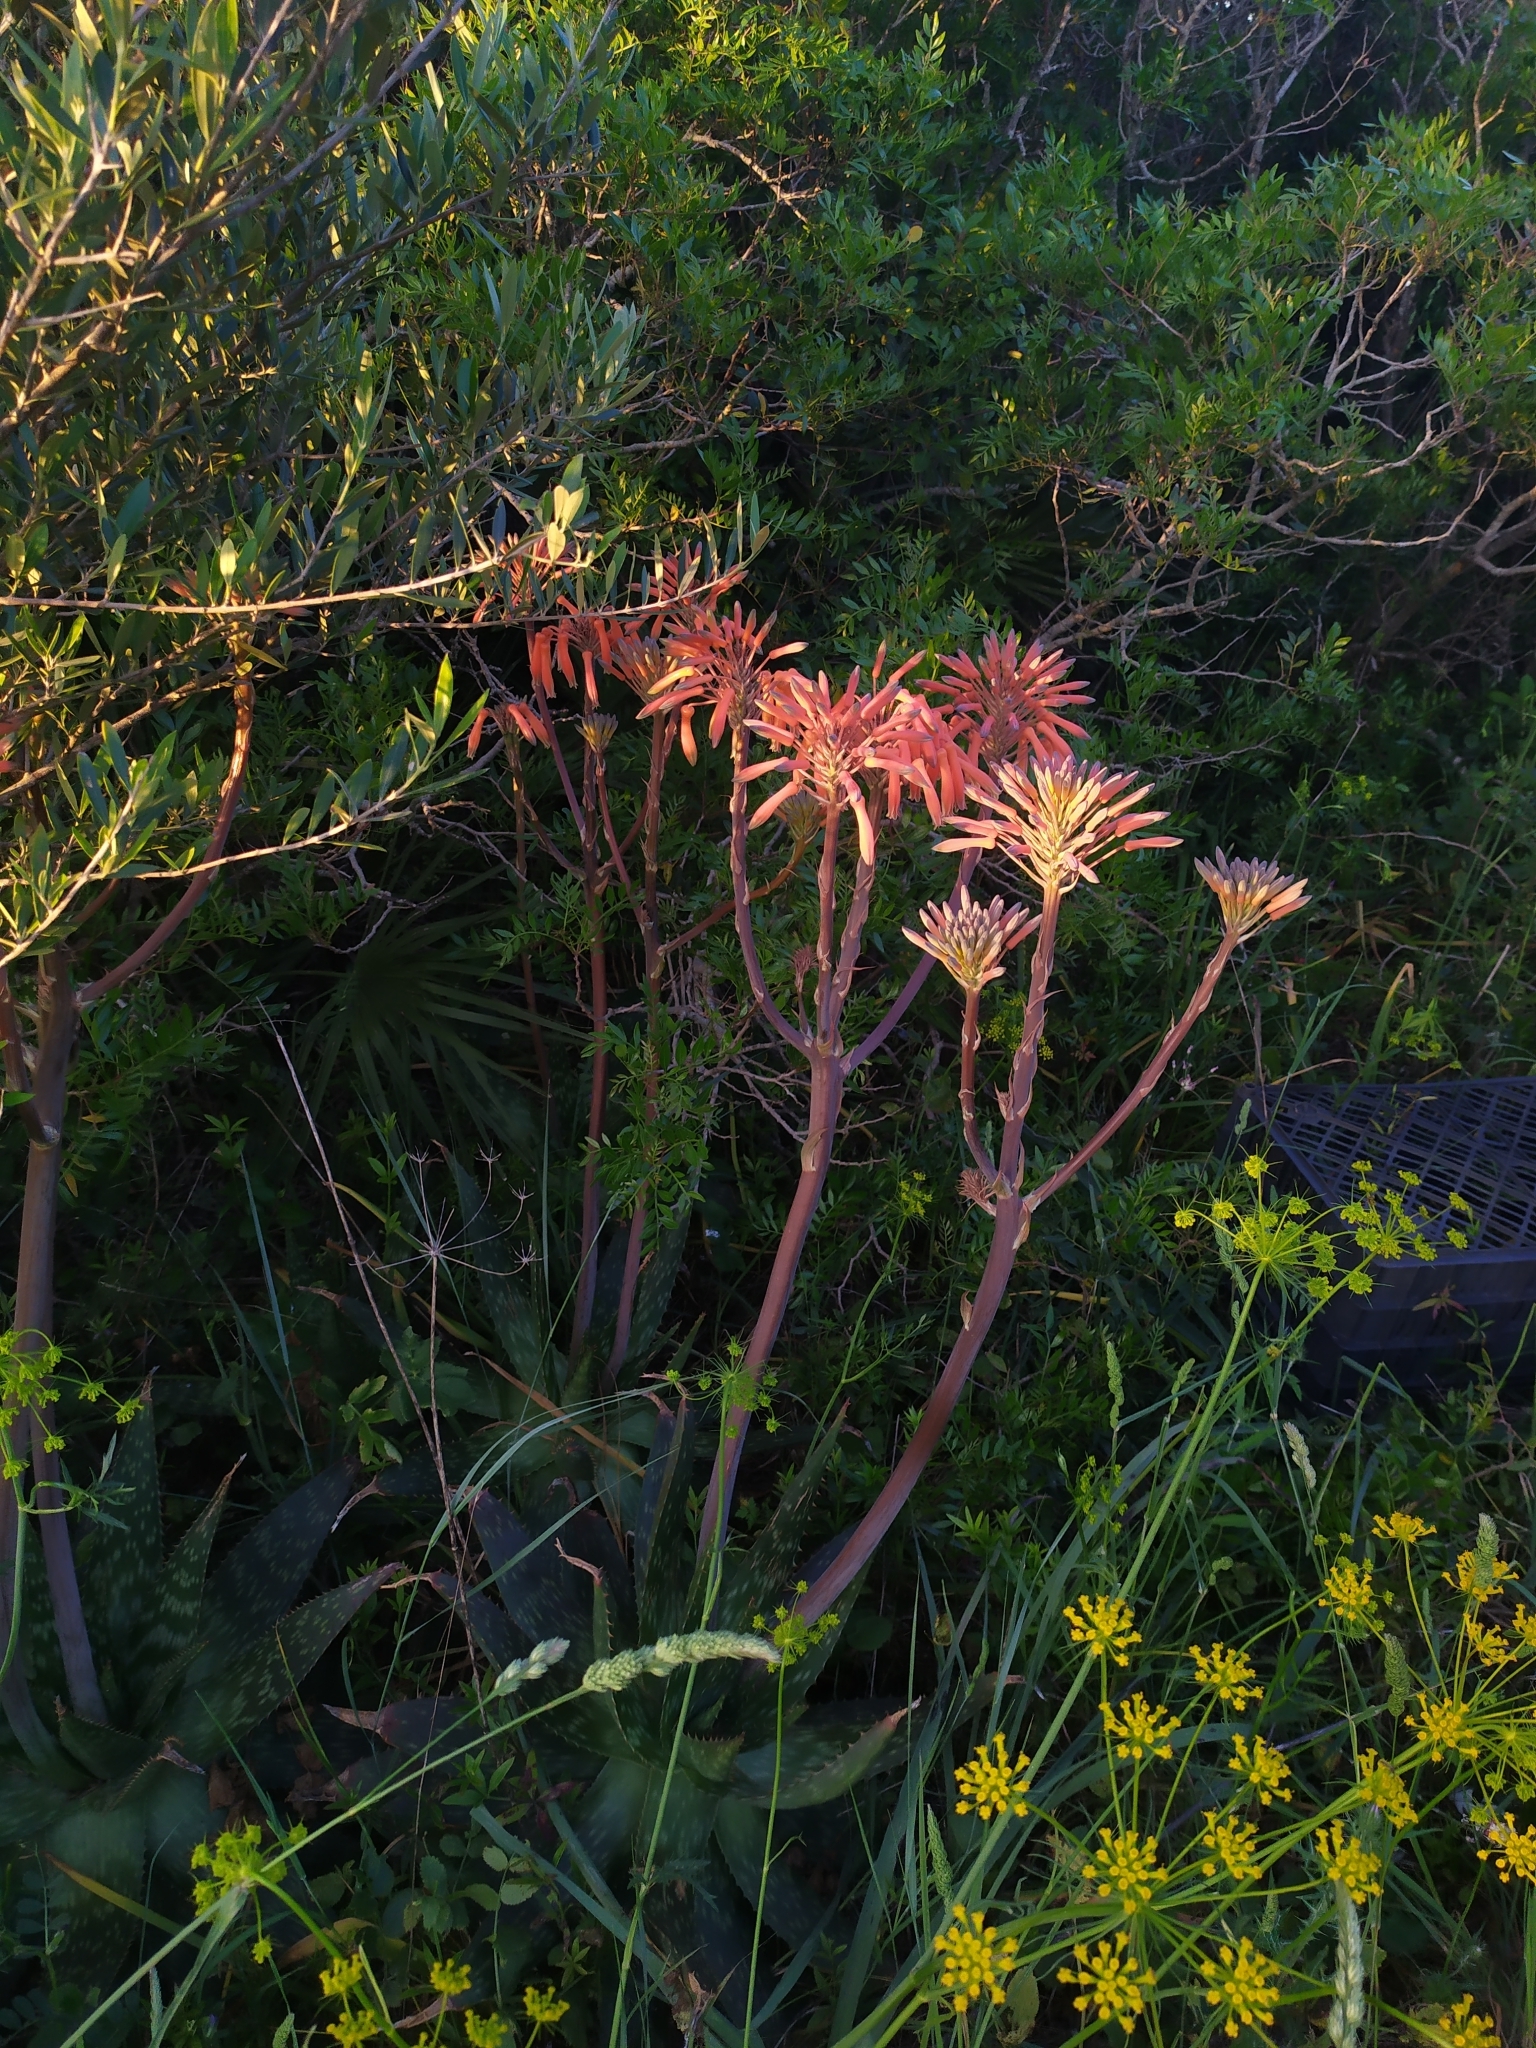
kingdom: Plantae
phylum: Tracheophyta
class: Liliopsida
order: Asparagales
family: Asphodelaceae
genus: Aloe
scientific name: Aloe maculata
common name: Broadleaf aloe
